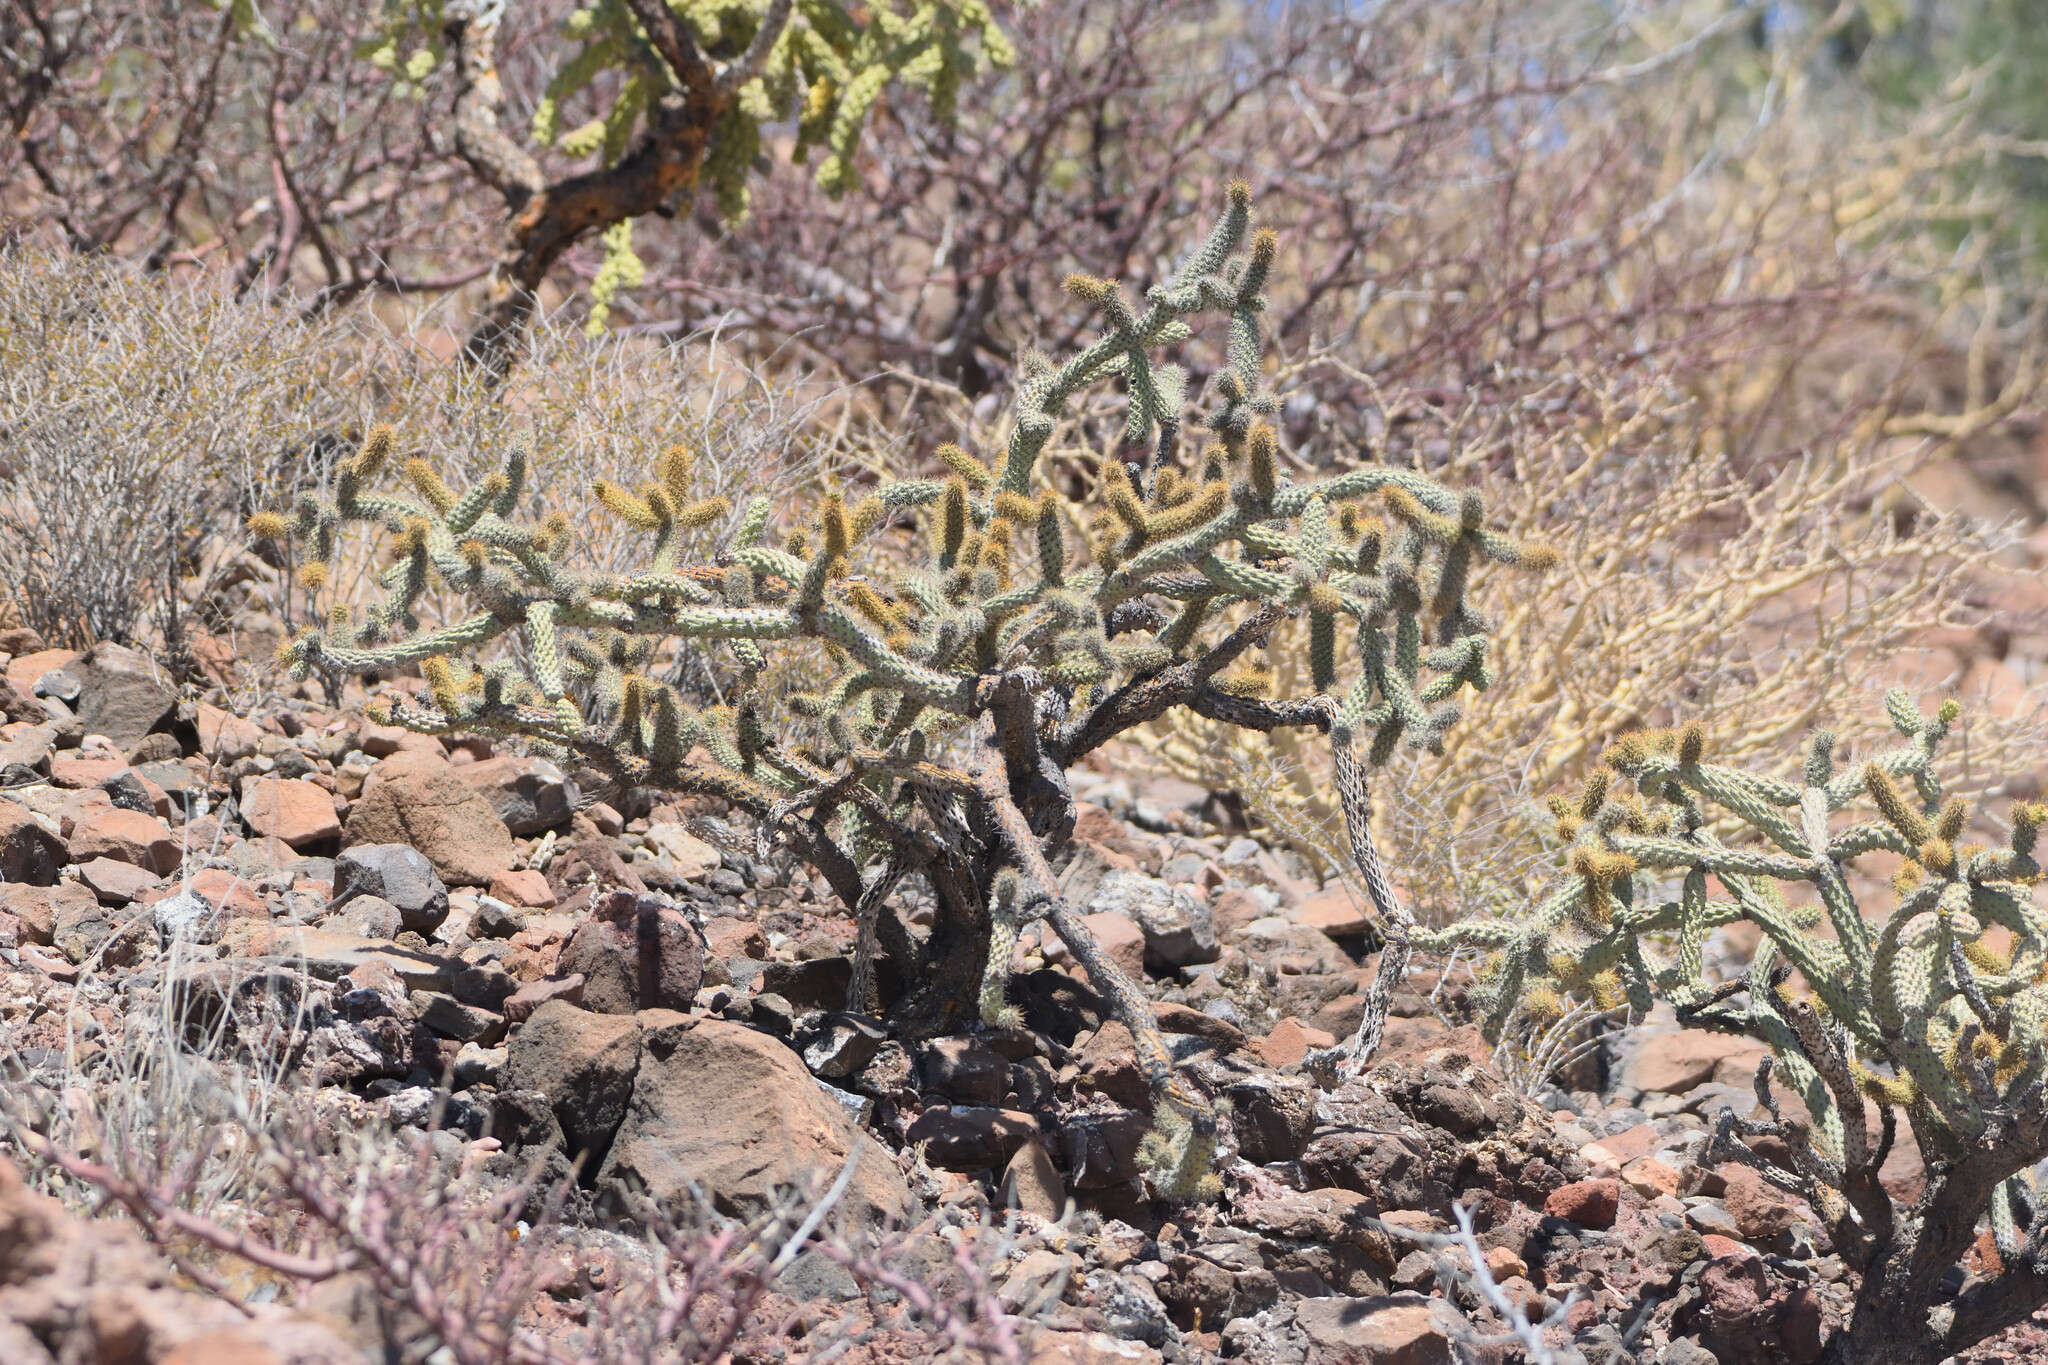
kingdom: Plantae
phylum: Tracheophyta
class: Magnoliopsida
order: Caryophyllales
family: Cactaceae
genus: Cylindropuntia
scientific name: Cylindropuntia alcahes
